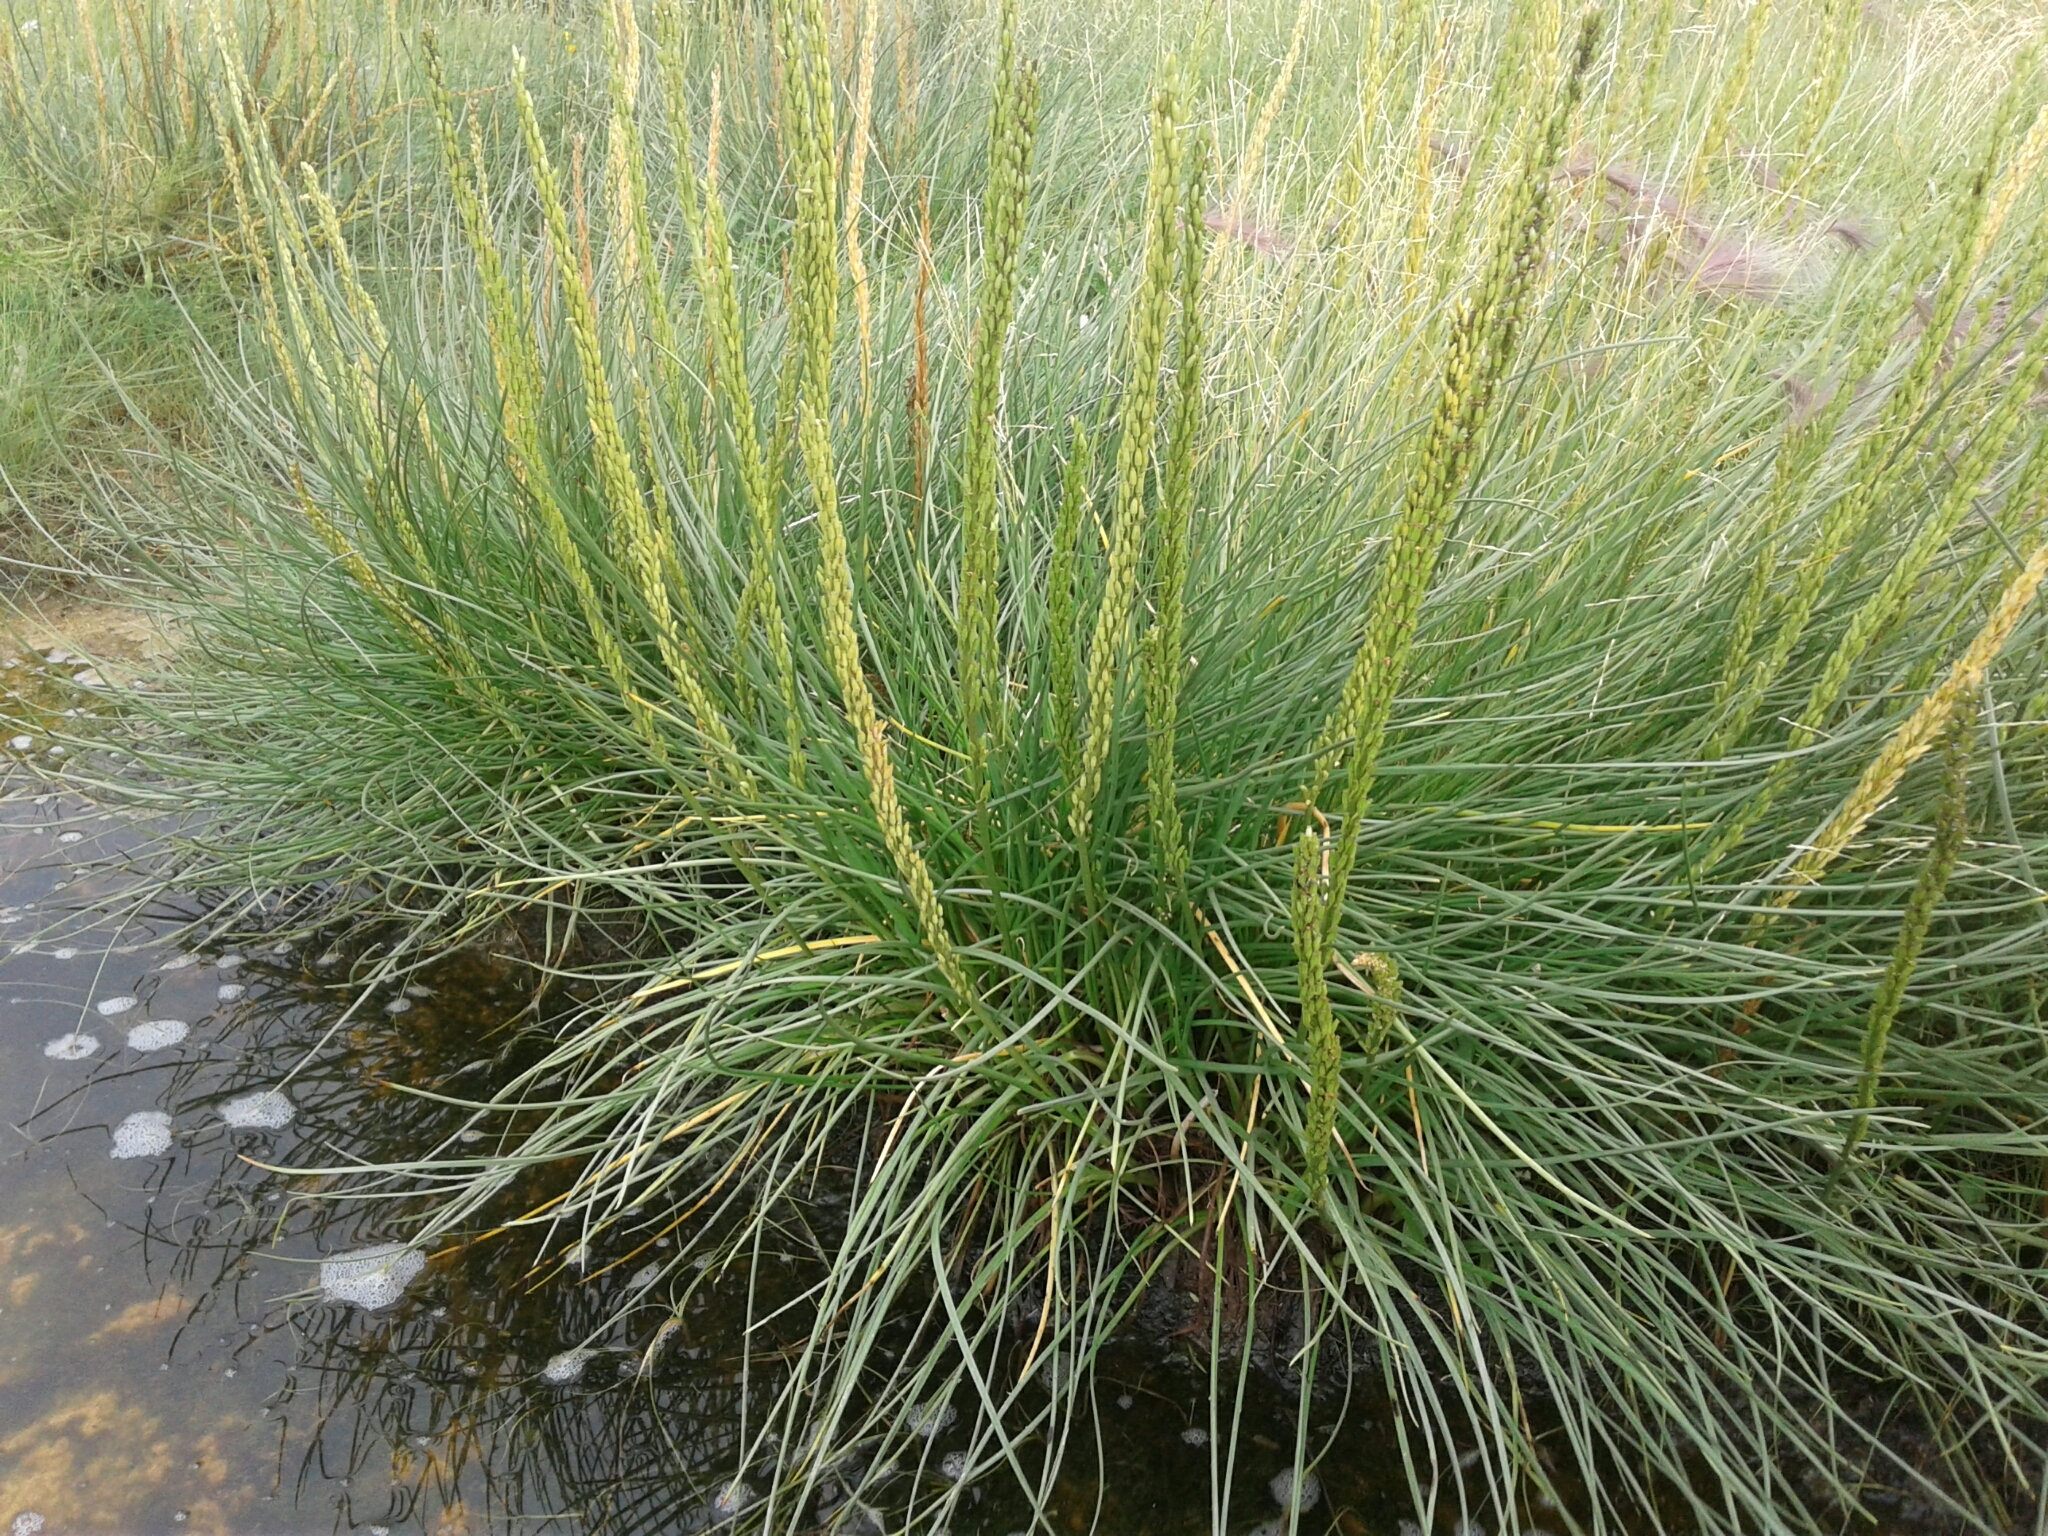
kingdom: Plantae
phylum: Tracheophyta
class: Liliopsida
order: Alismatales
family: Juncaginaceae
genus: Triglochin
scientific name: Triglochin maritima
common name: Sea arrowgrass
